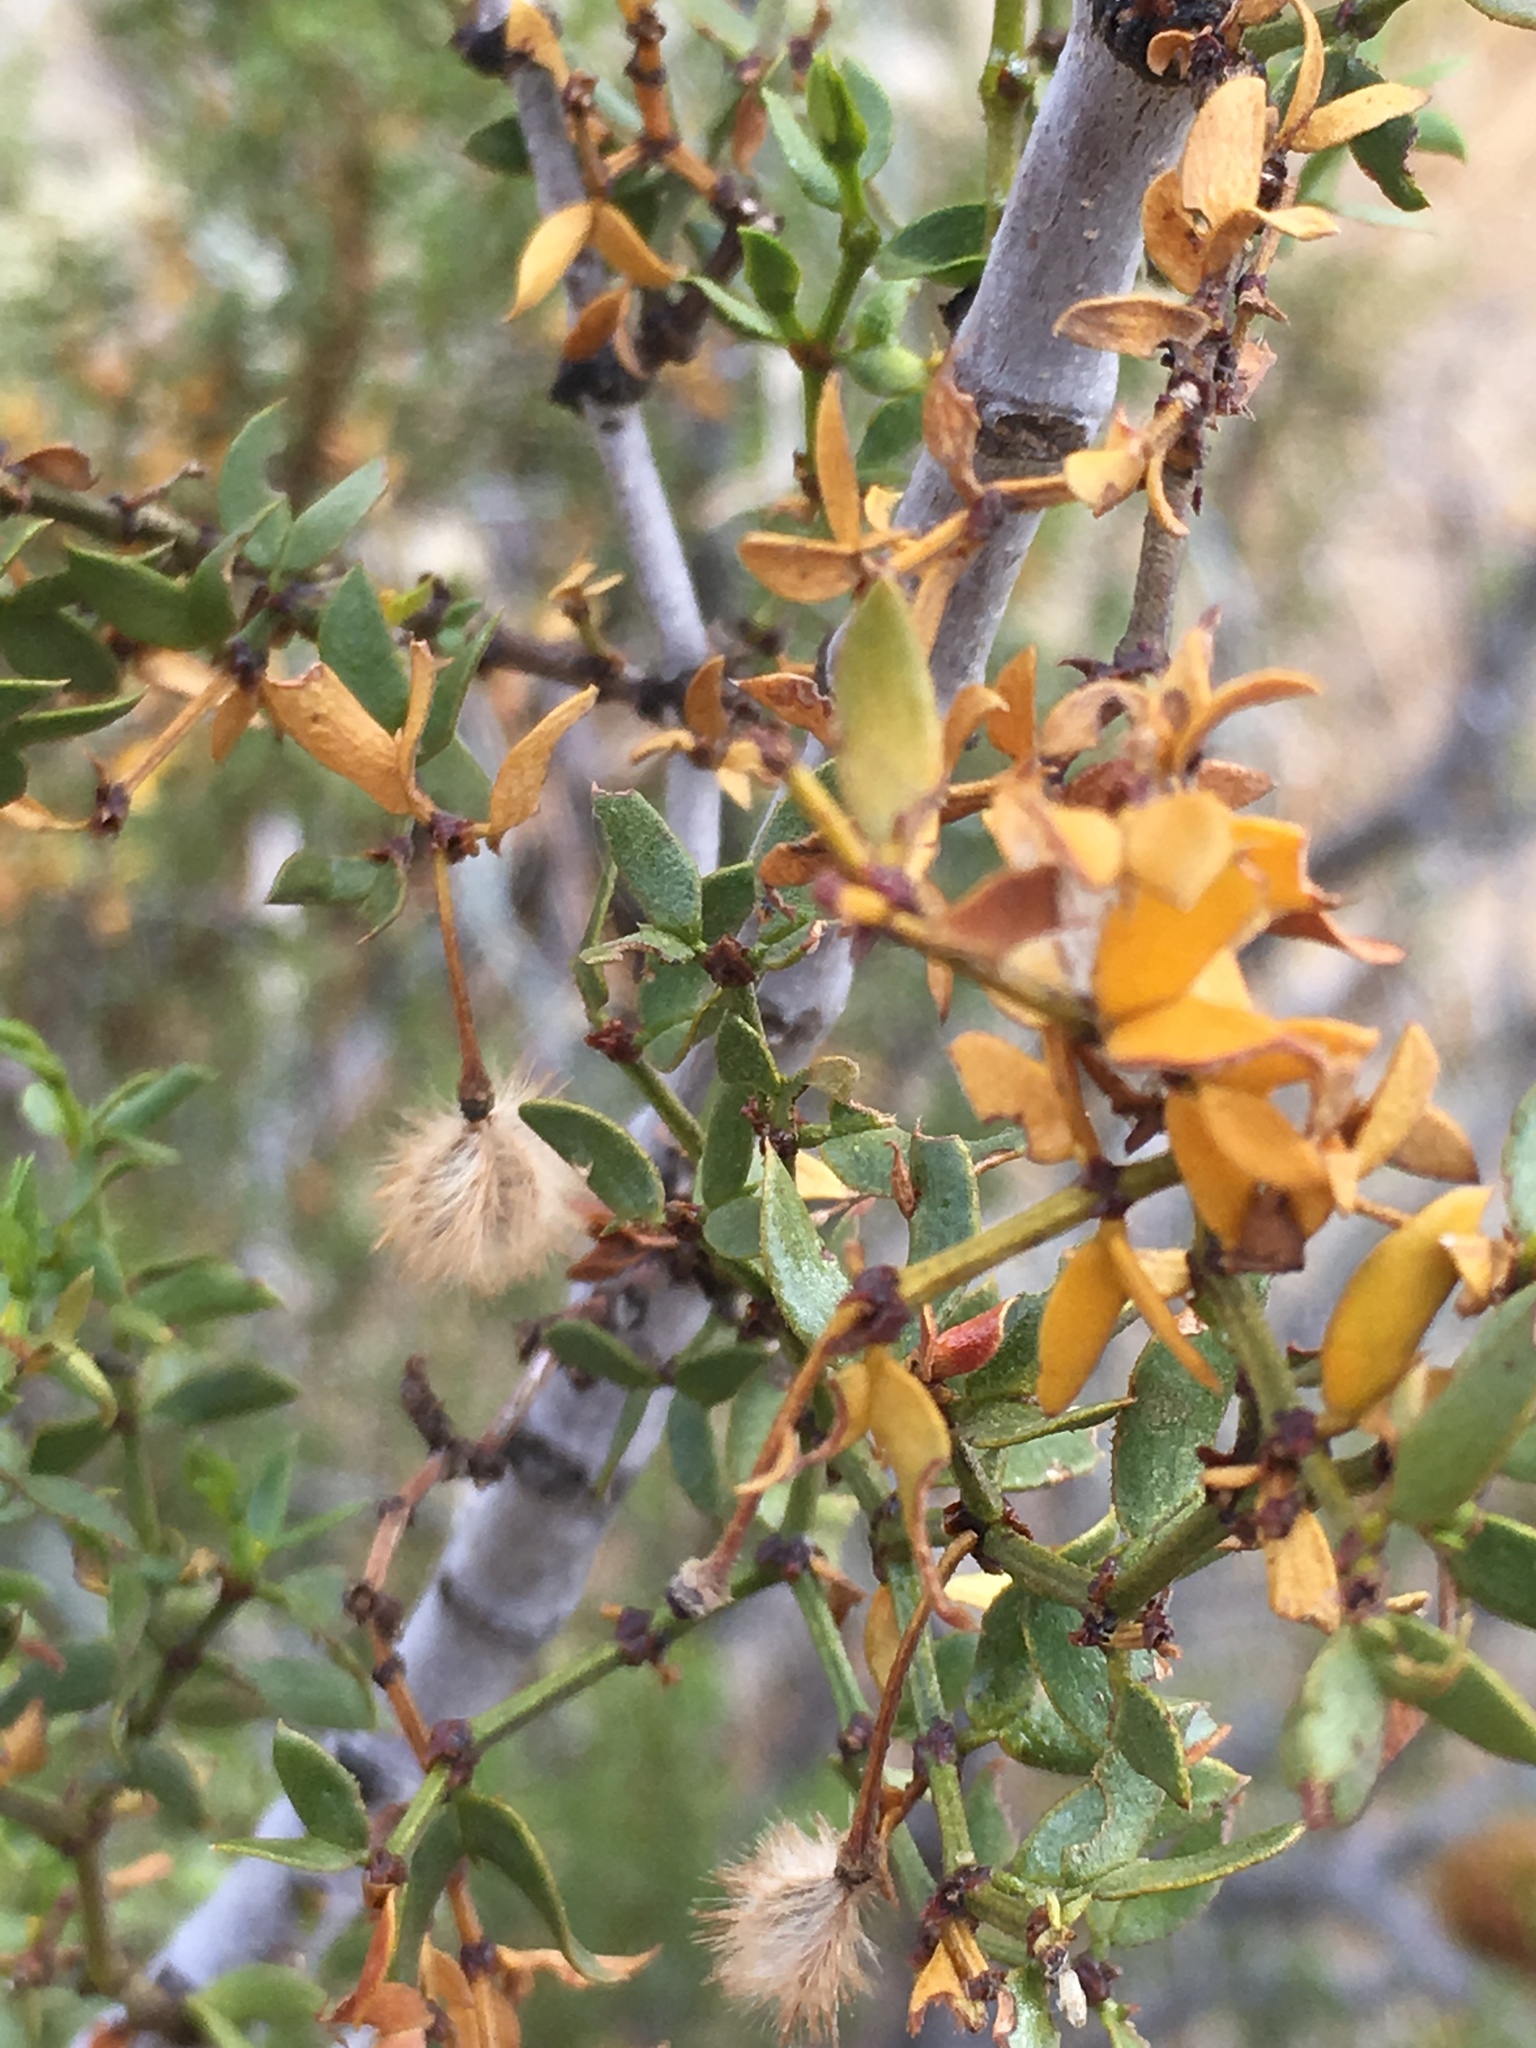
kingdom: Plantae
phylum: Tracheophyta
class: Magnoliopsida
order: Zygophyllales
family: Zygophyllaceae
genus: Larrea
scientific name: Larrea tridentata
